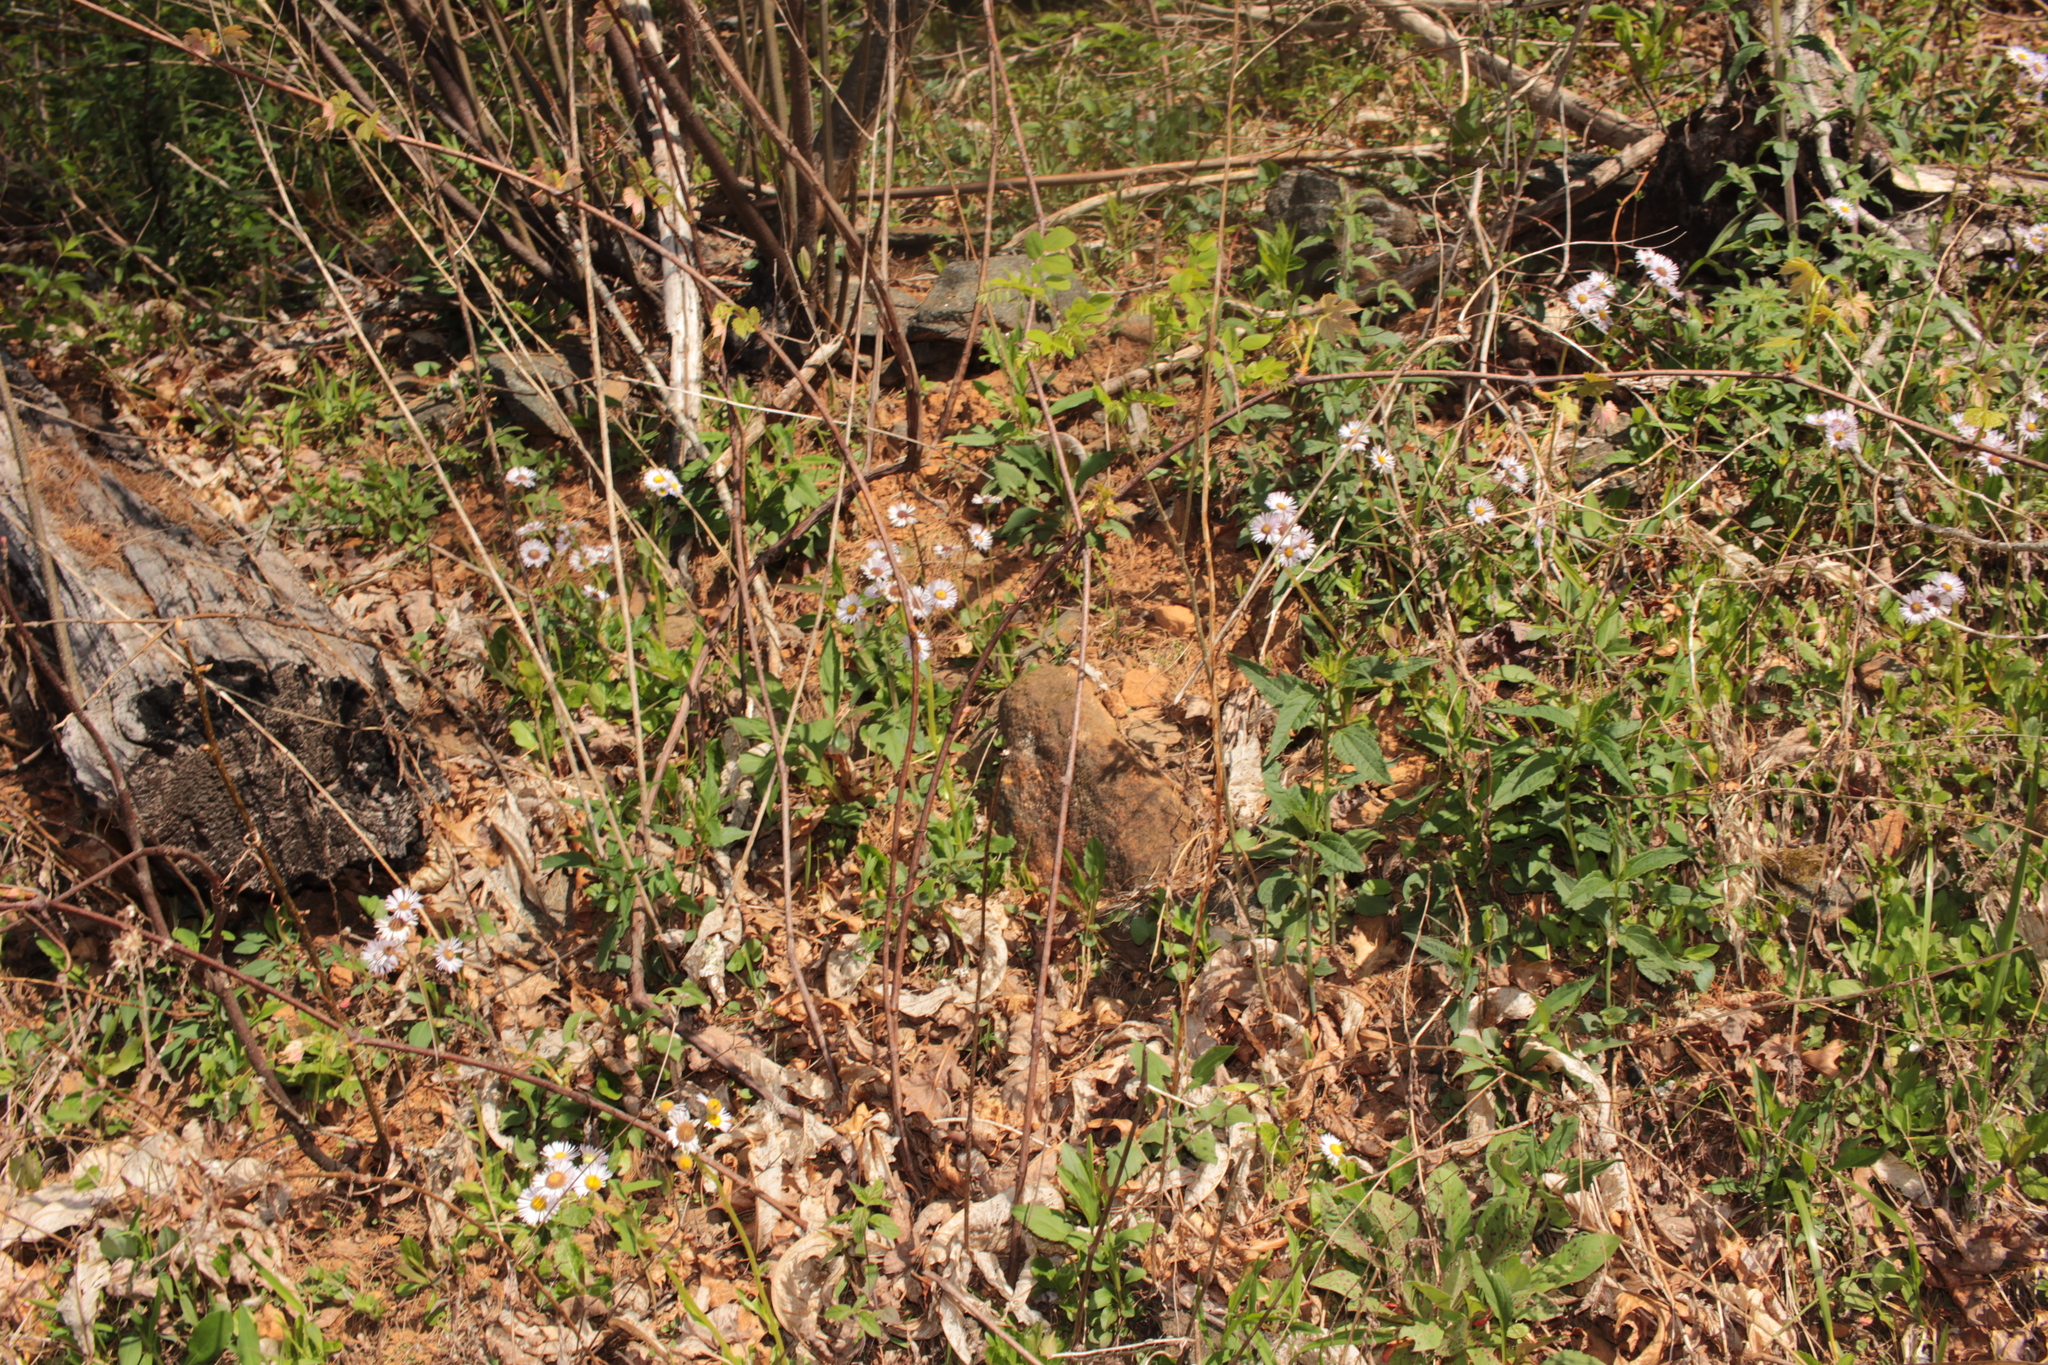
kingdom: Plantae
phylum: Tracheophyta
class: Magnoliopsida
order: Asterales
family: Asteraceae
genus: Erigeron
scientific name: Erigeron pulchellus
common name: Hairy fleabane
